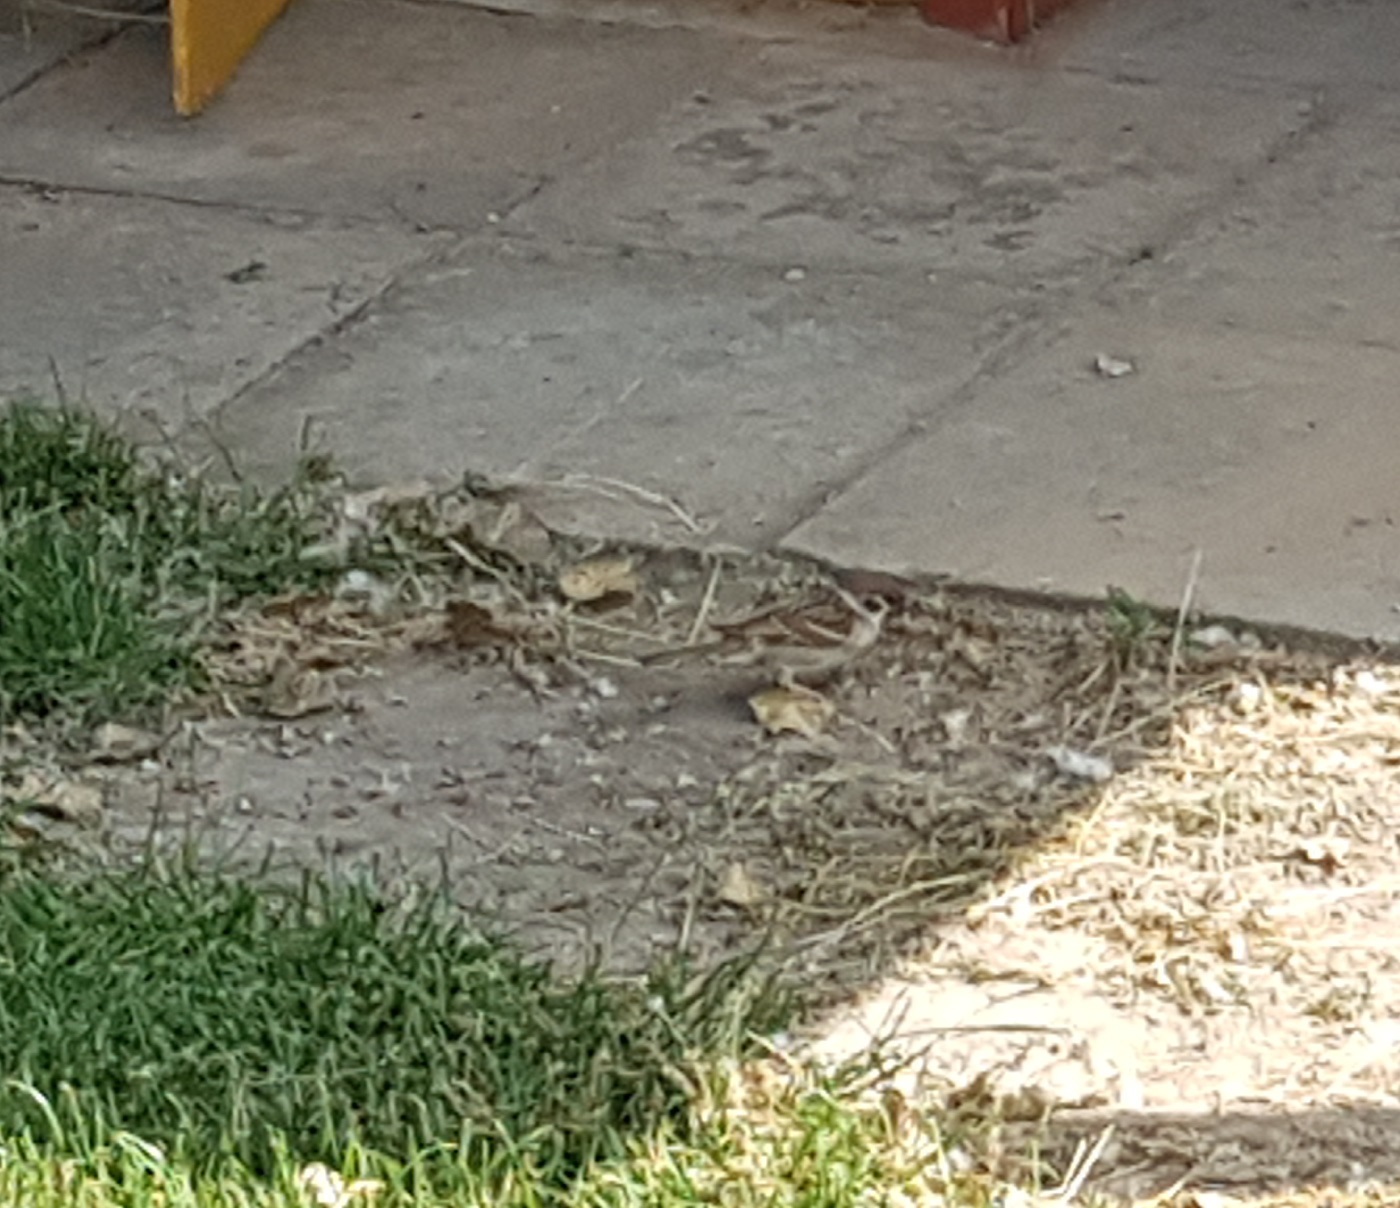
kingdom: Animalia
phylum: Chordata
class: Aves
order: Passeriformes
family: Passeridae
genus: Passer
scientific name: Passer montanus
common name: Eurasian tree sparrow
